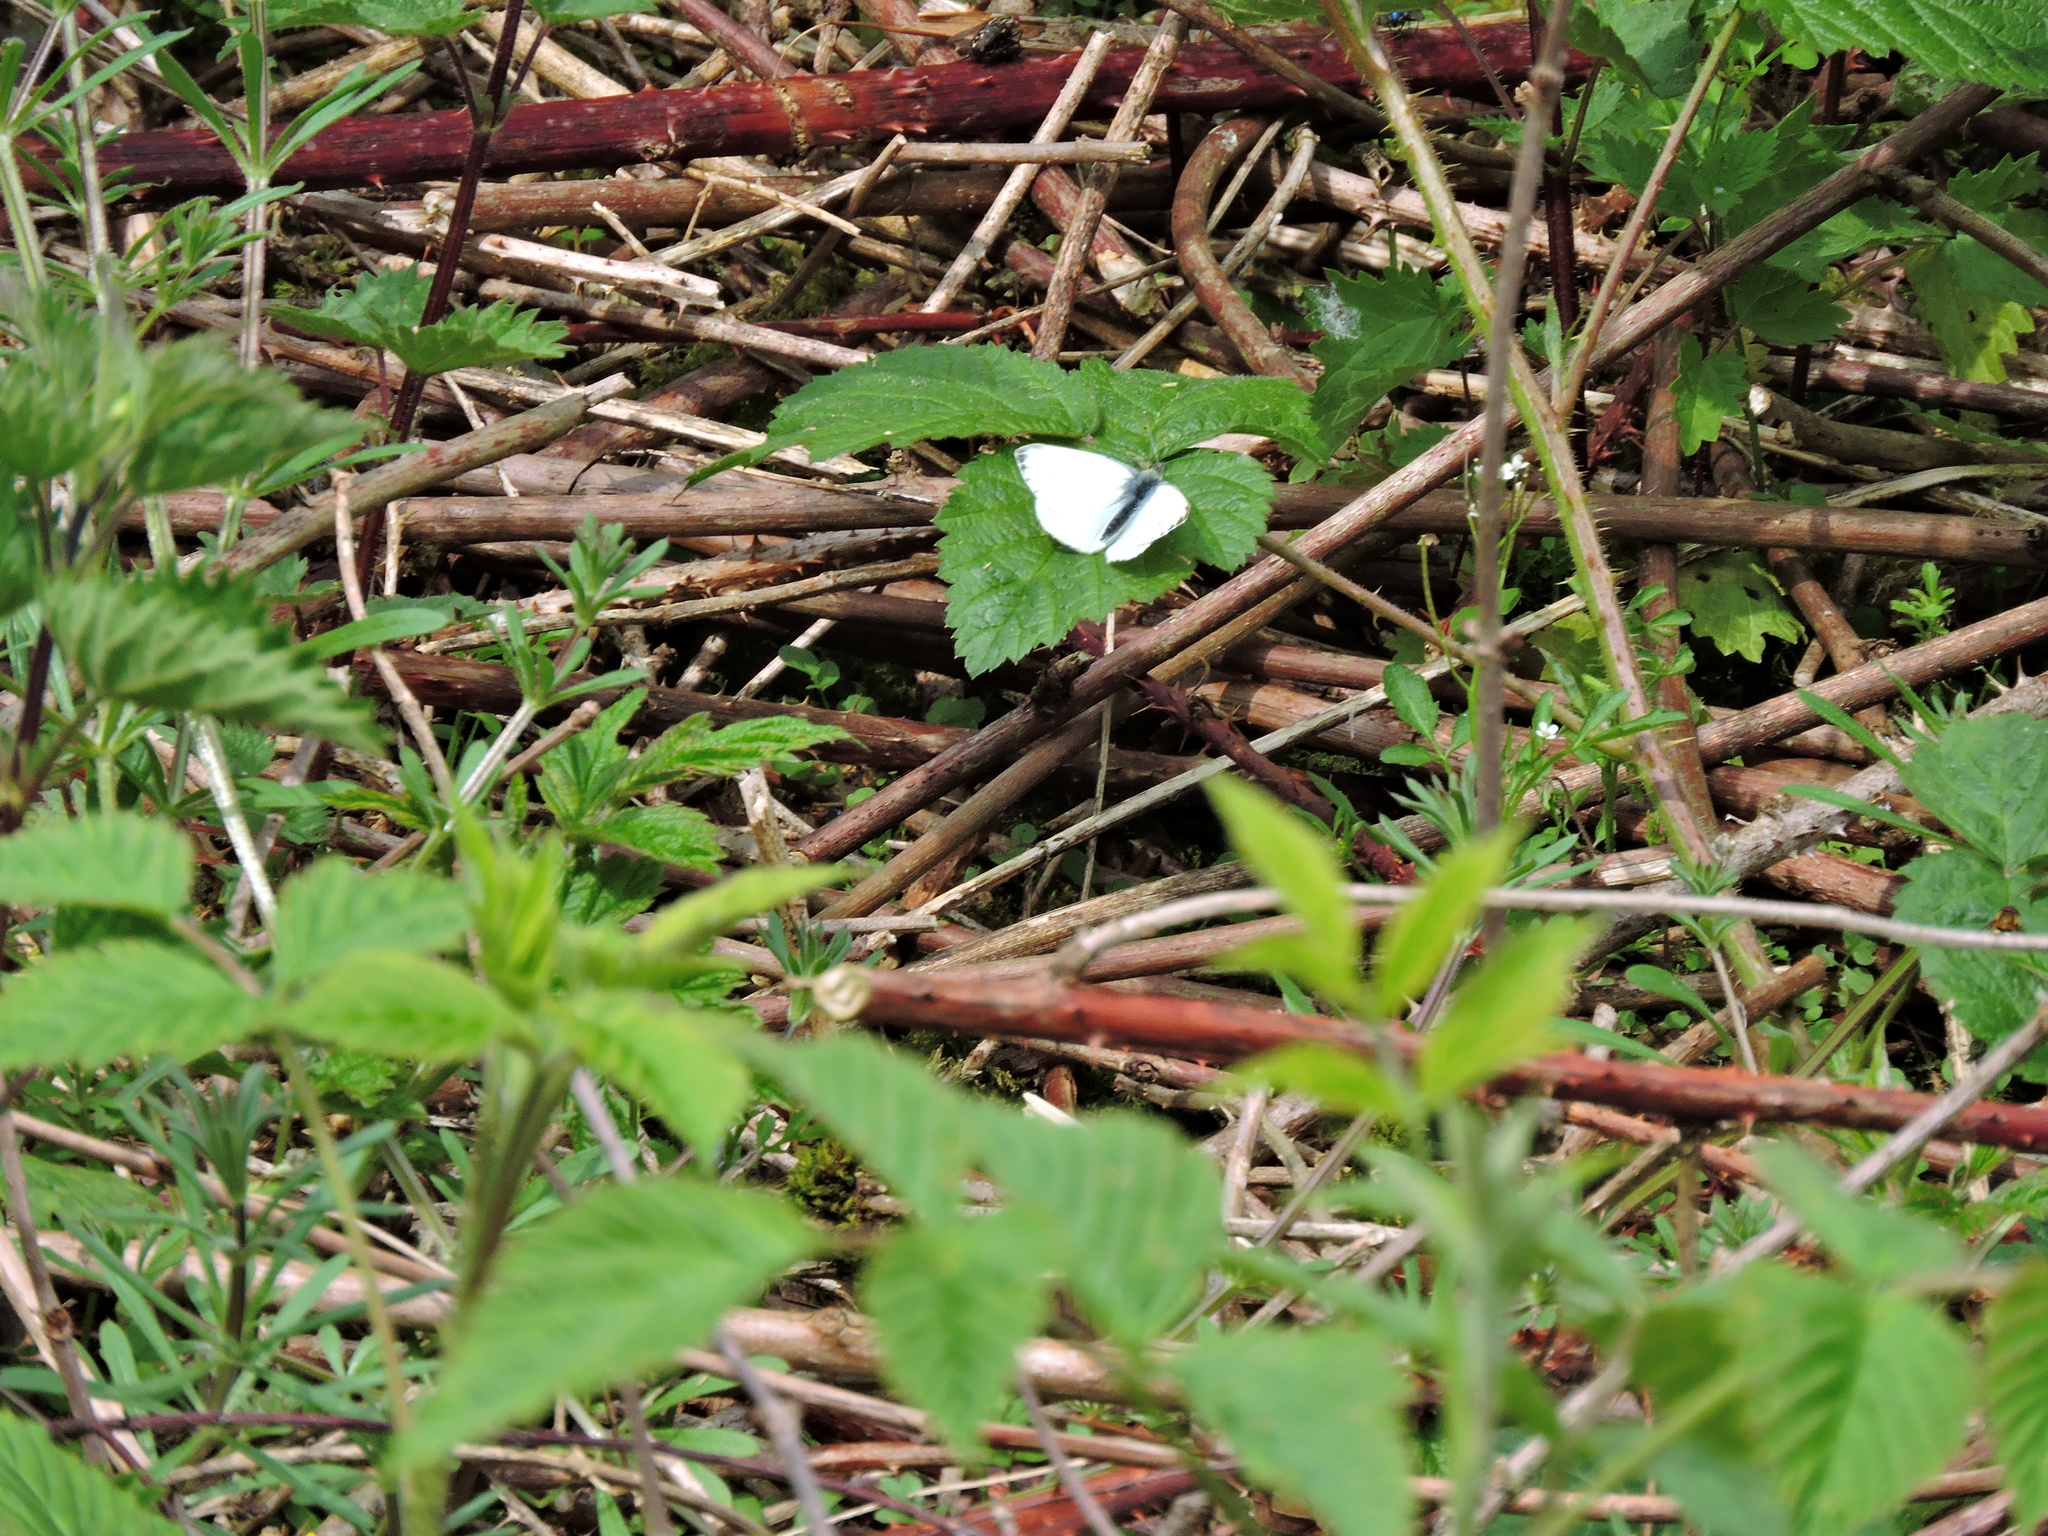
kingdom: Animalia
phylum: Arthropoda
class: Insecta
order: Lepidoptera
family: Pieridae
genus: Pieris
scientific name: Pieris napi
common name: Green-veined white
